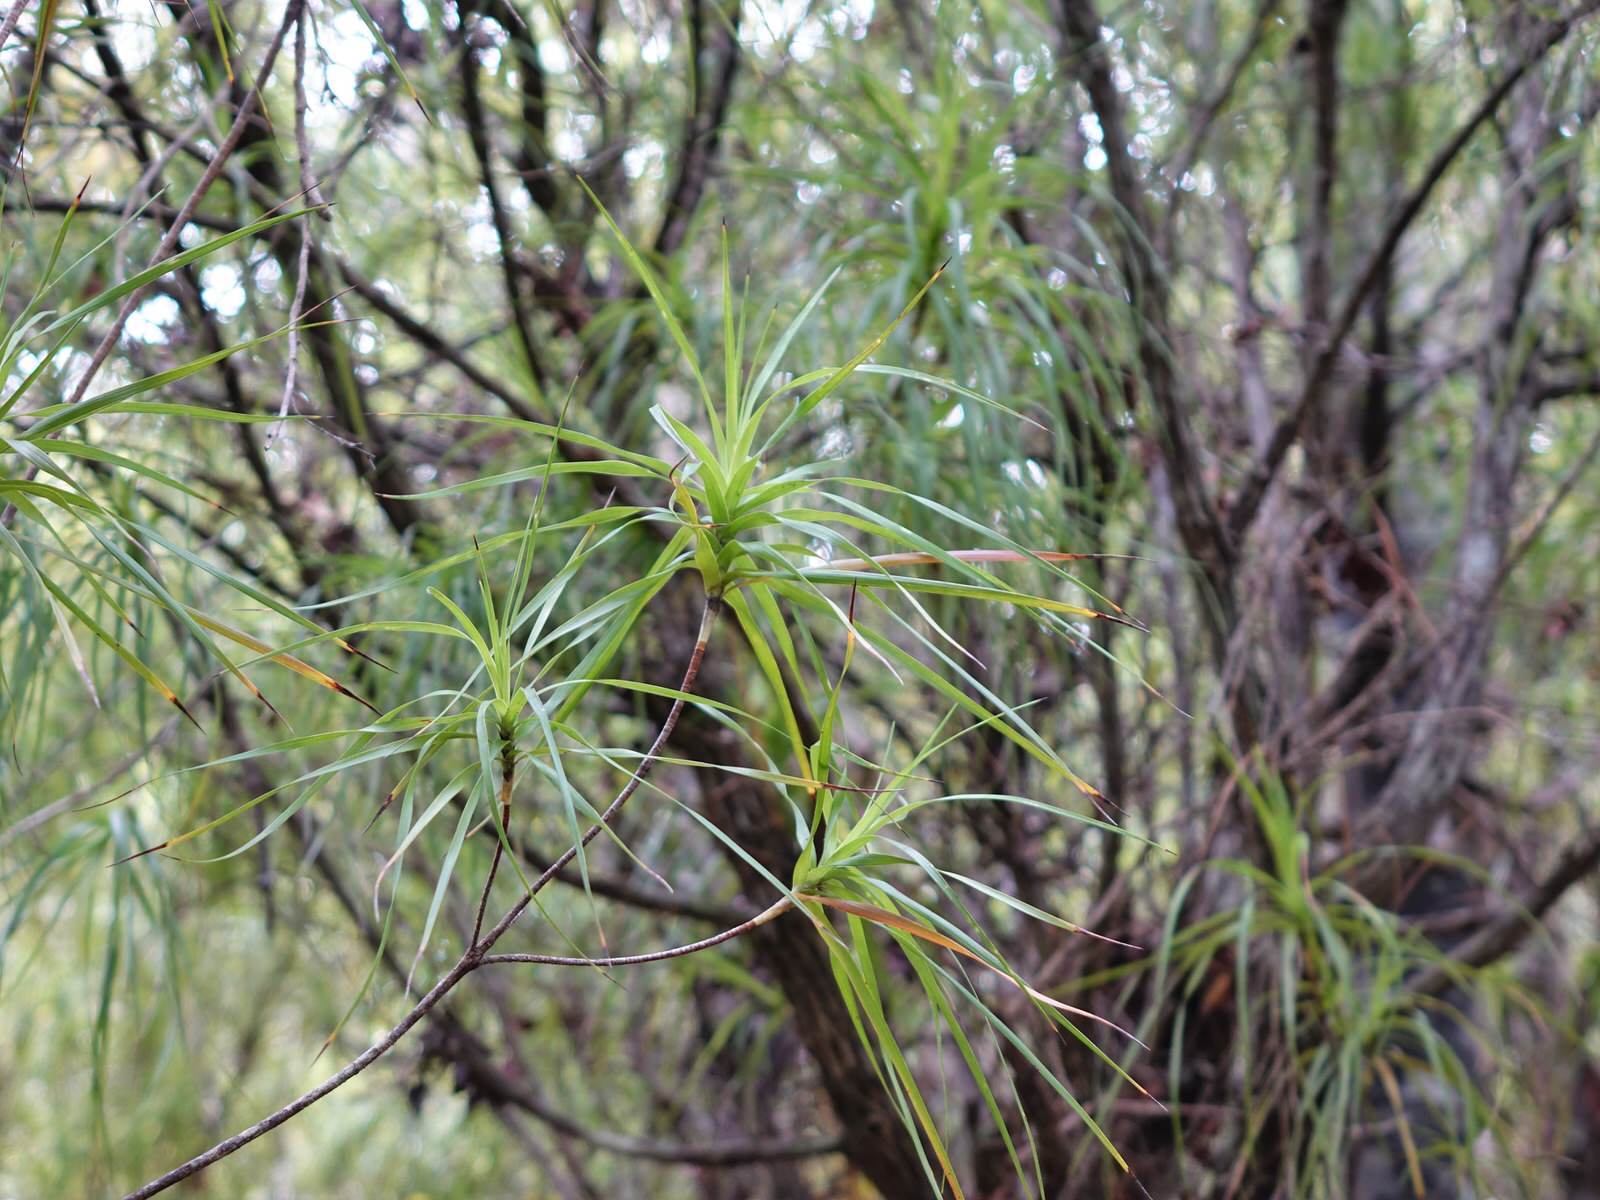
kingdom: Plantae
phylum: Tracheophyta
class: Magnoliopsida
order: Ericales
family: Ericaceae
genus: Dracophyllum
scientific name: Dracophyllum sinclairii
